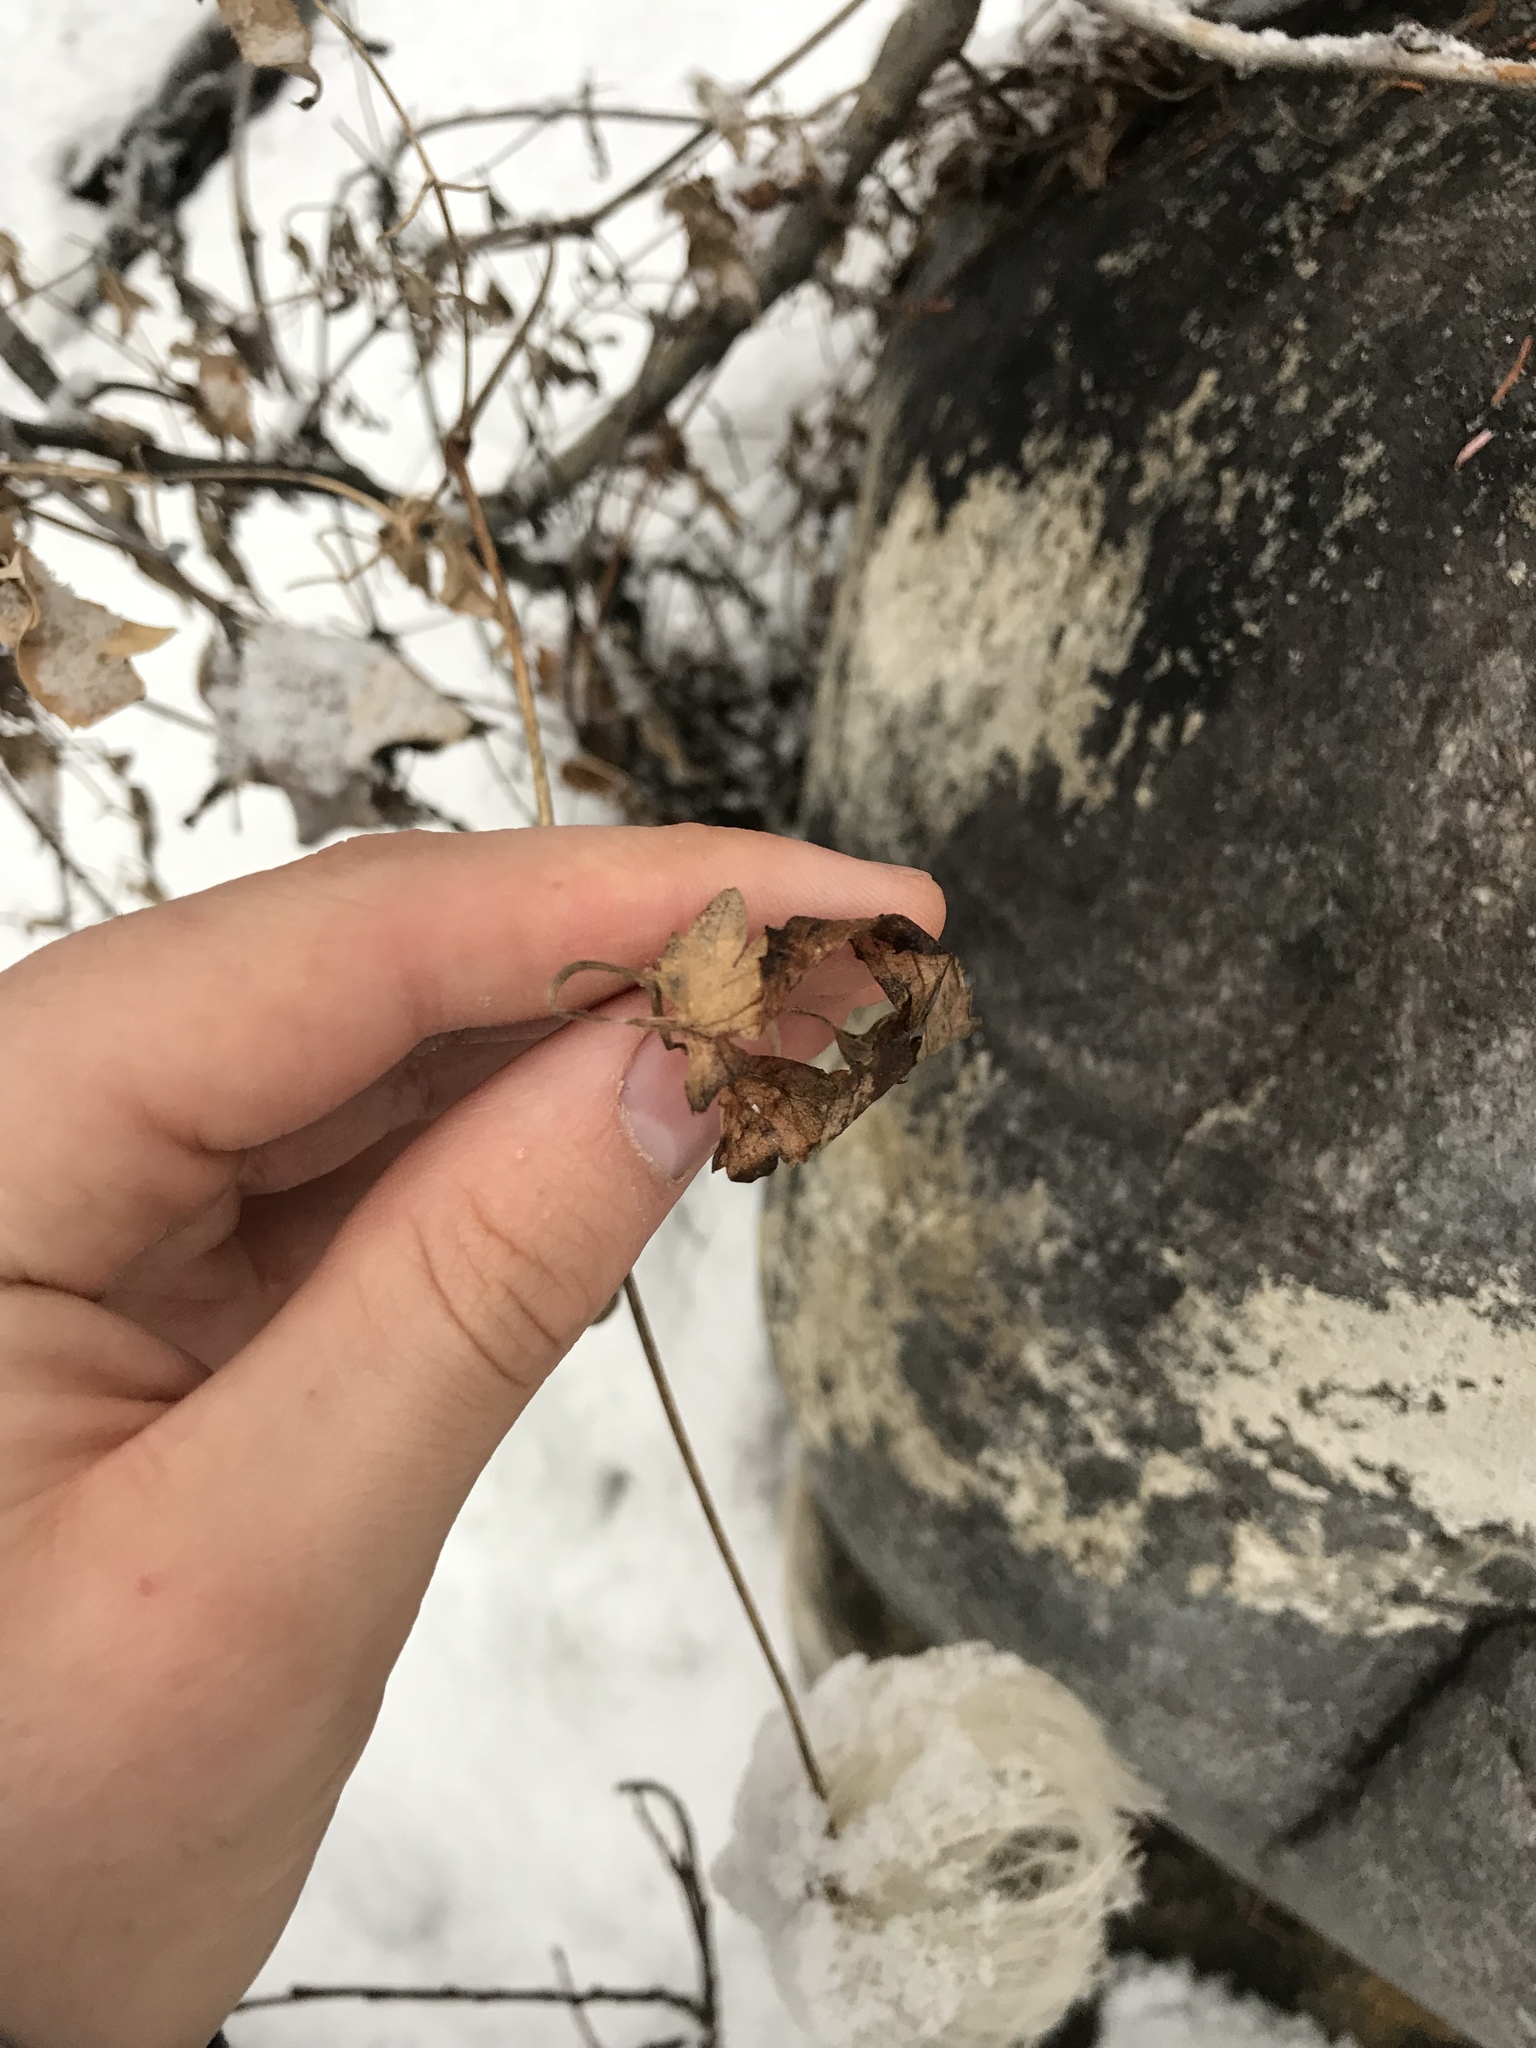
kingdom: Plantae
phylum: Tracheophyta
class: Magnoliopsida
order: Ranunculales
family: Ranunculaceae
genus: Clematis
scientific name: Clematis occidentalis
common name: Purple clematis
